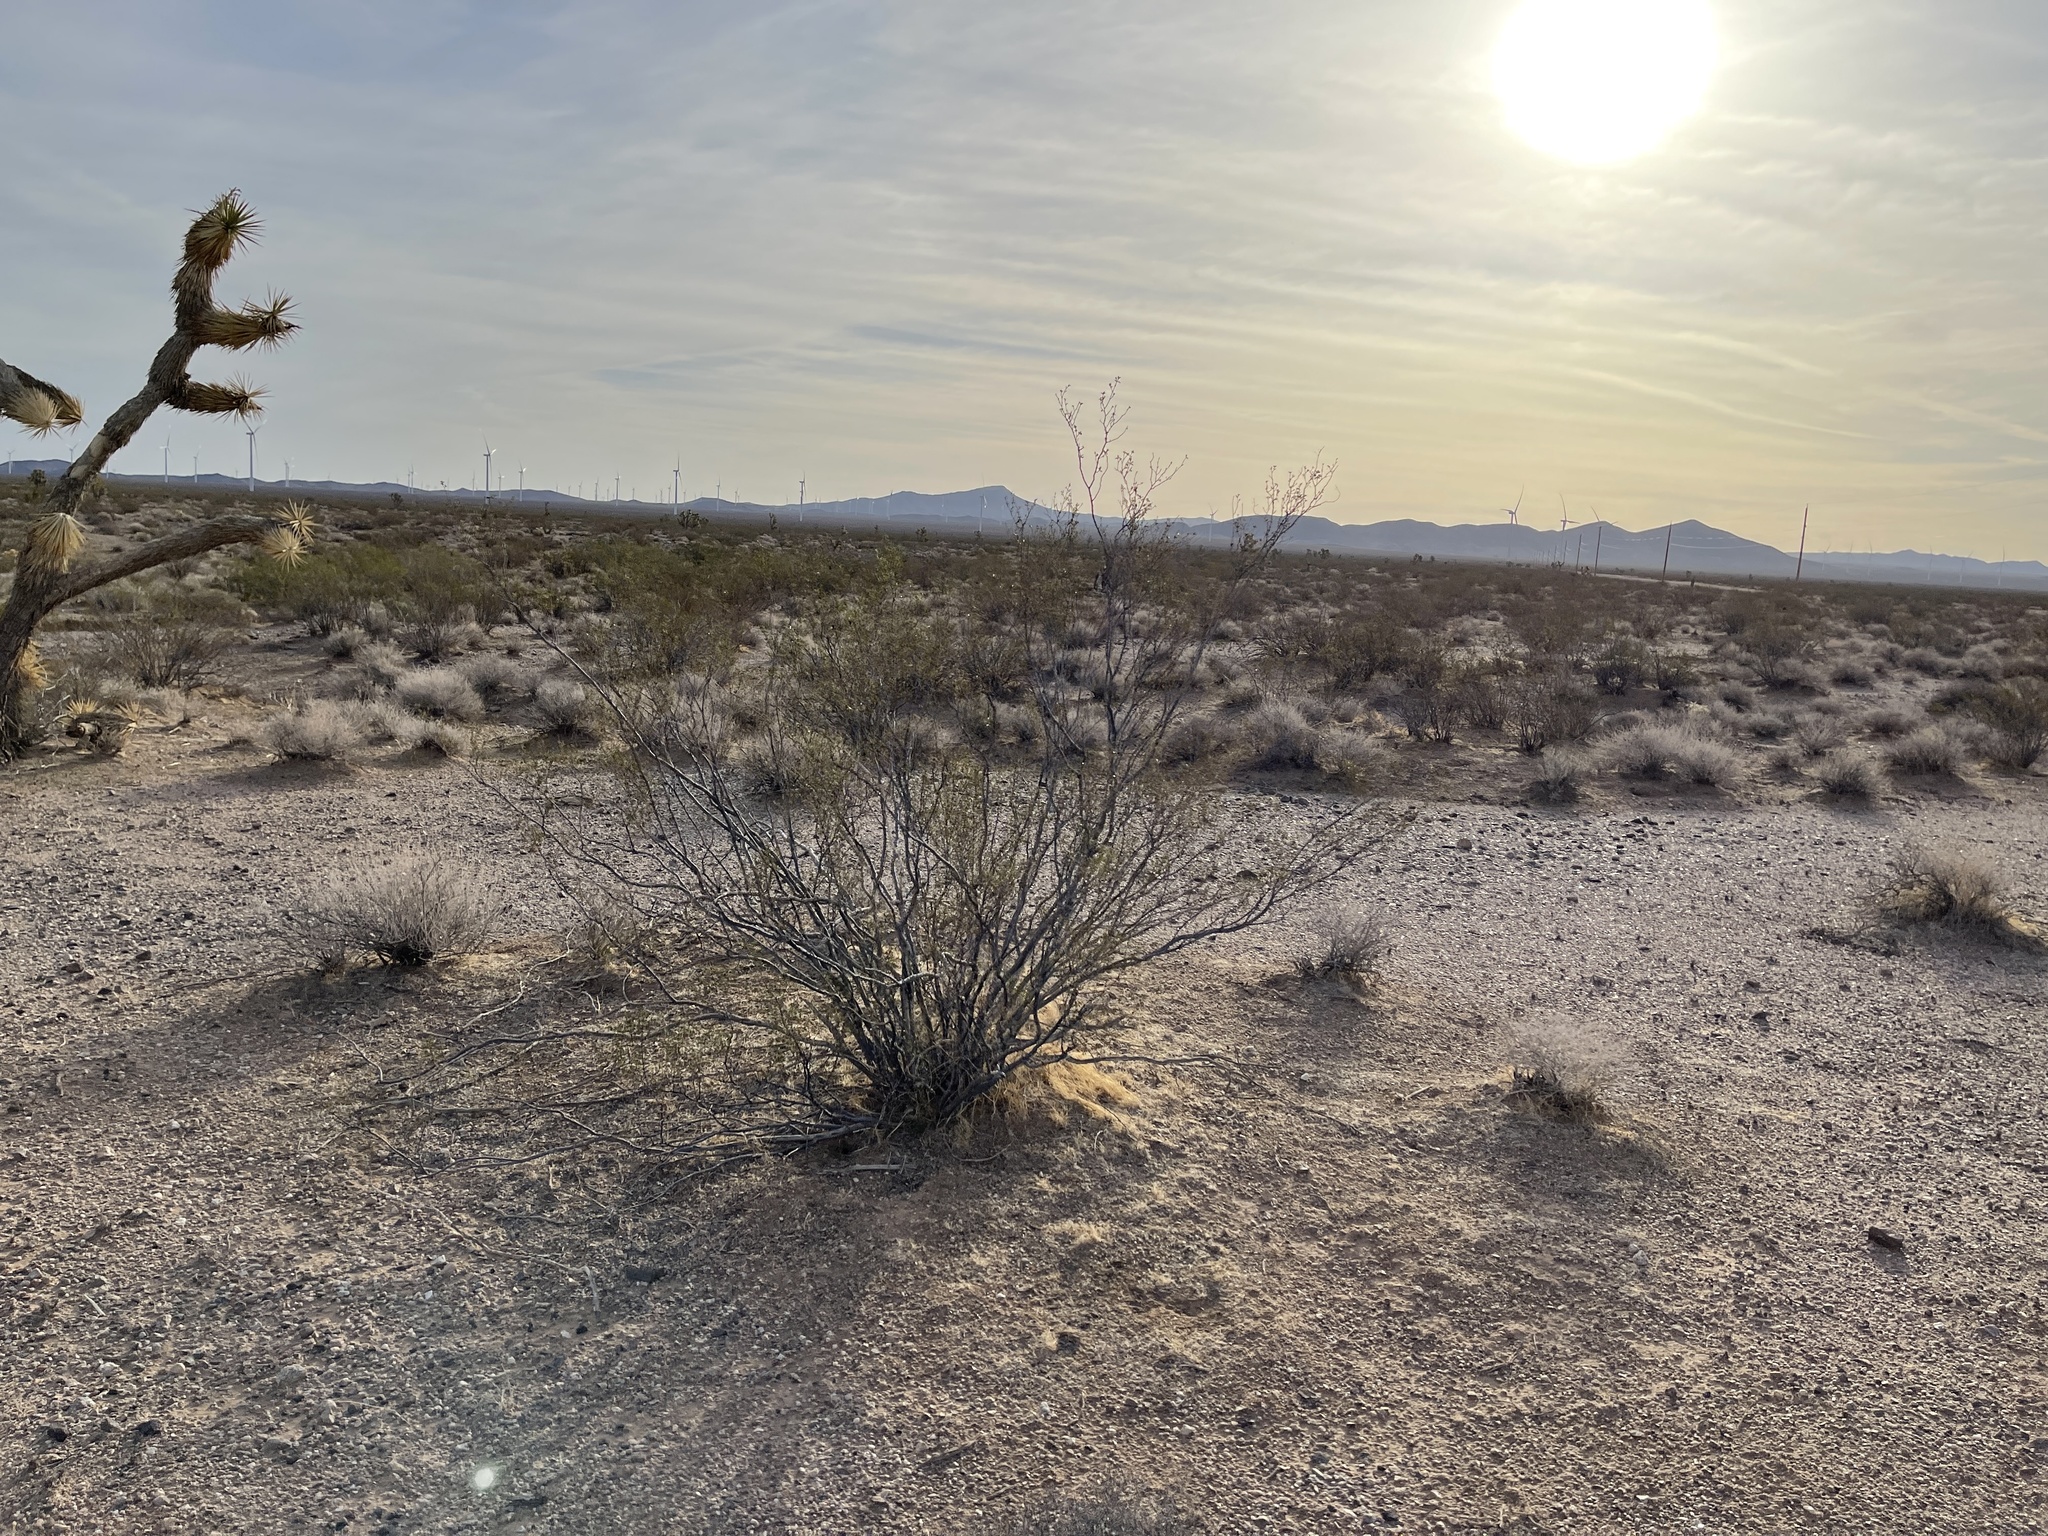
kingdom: Plantae
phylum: Tracheophyta
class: Magnoliopsida
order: Zygophyllales
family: Zygophyllaceae
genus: Larrea
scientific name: Larrea tridentata
